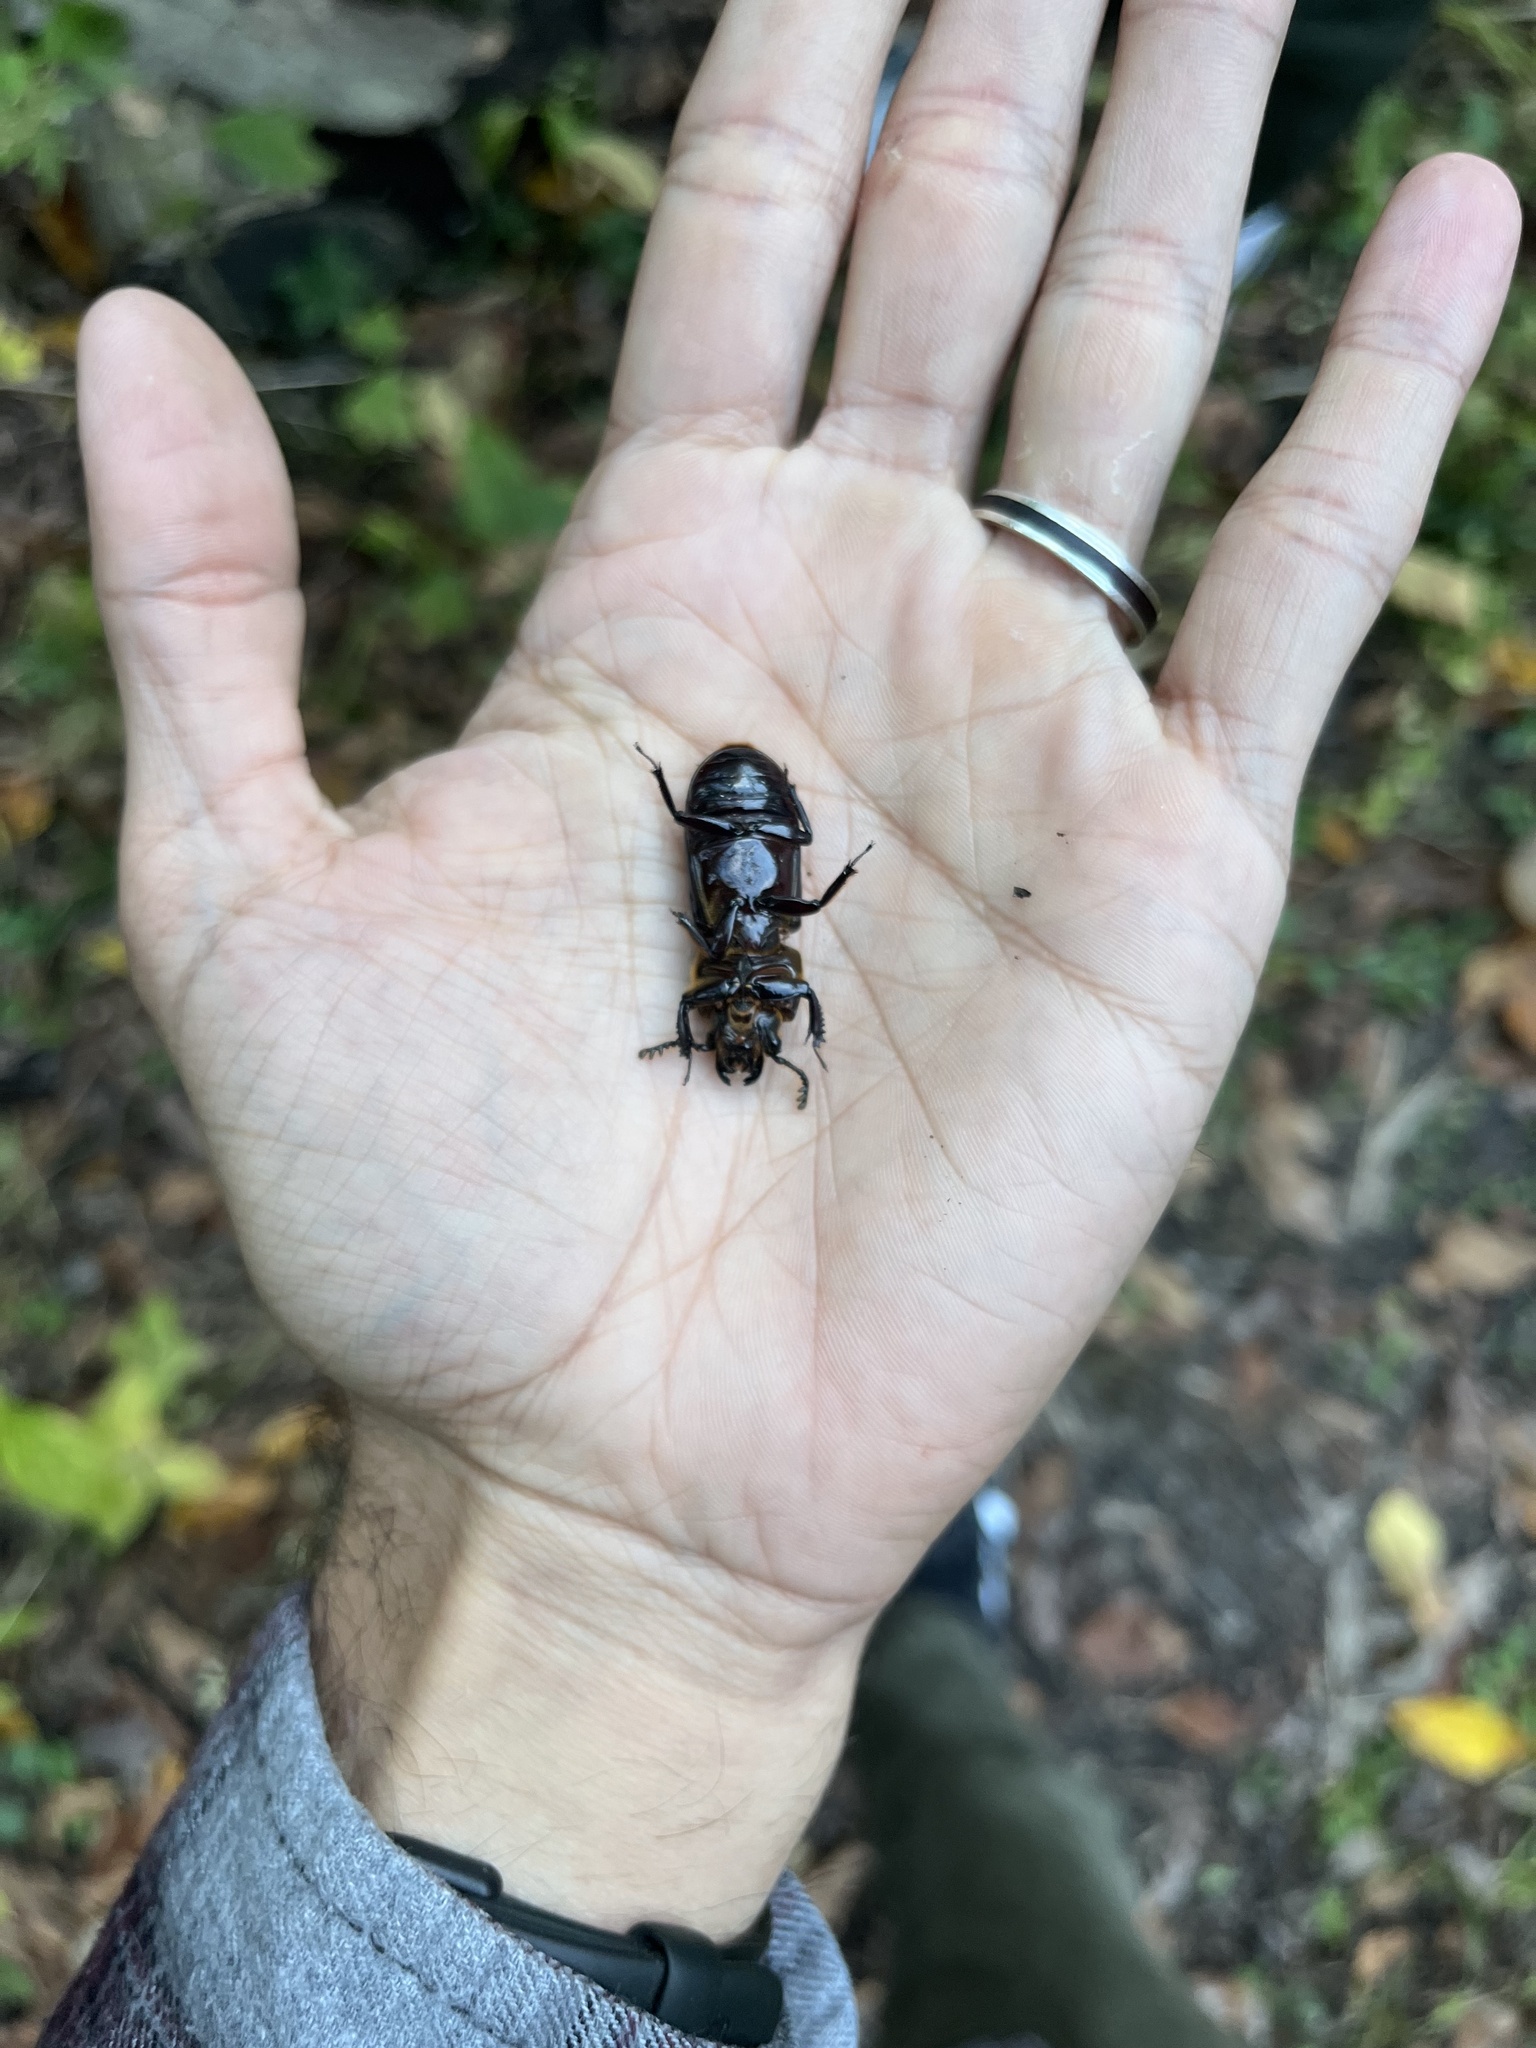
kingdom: Animalia
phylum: Arthropoda
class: Insecta
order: Coleoptera
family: Passalidae
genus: Odontotaenius
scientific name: Odontotaenius disjunctus
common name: Patent leather beetle
